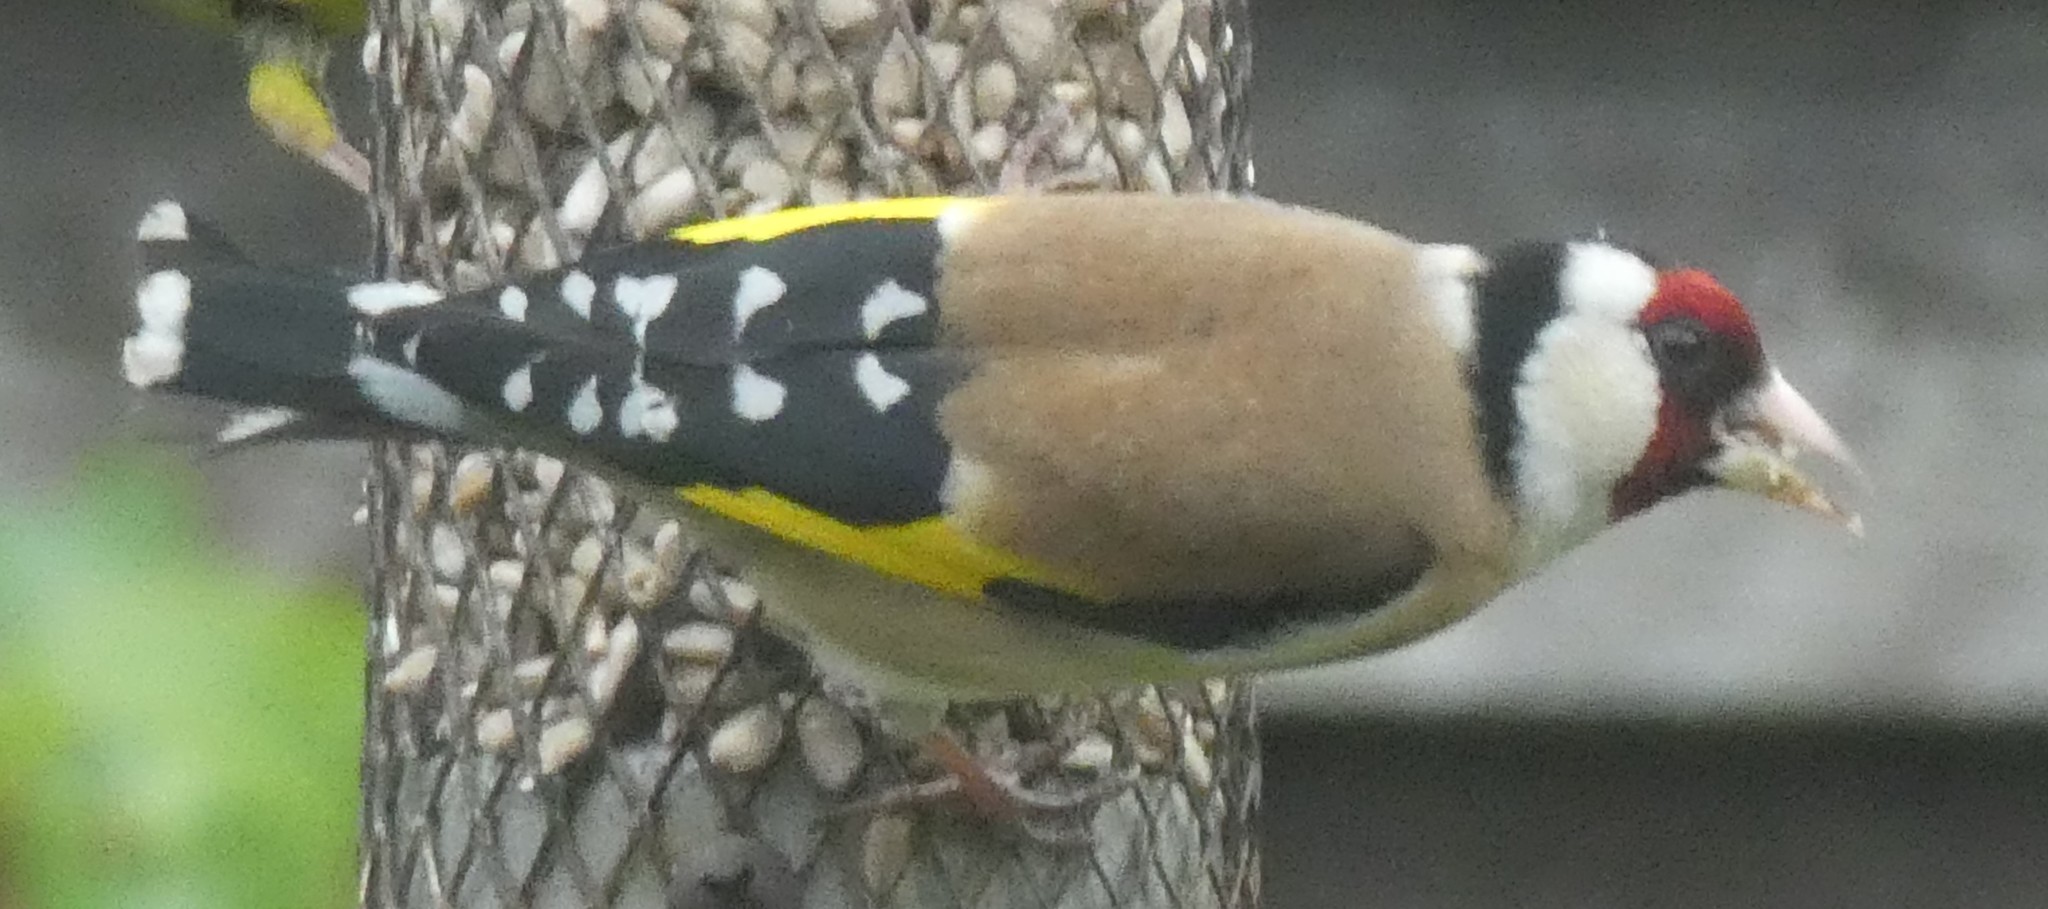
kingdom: Animalia
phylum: Chordata
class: Aves
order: Passeriformes
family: Fringillidae
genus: Carduelis
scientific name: Carduelis carduelis
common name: European goldfinch
